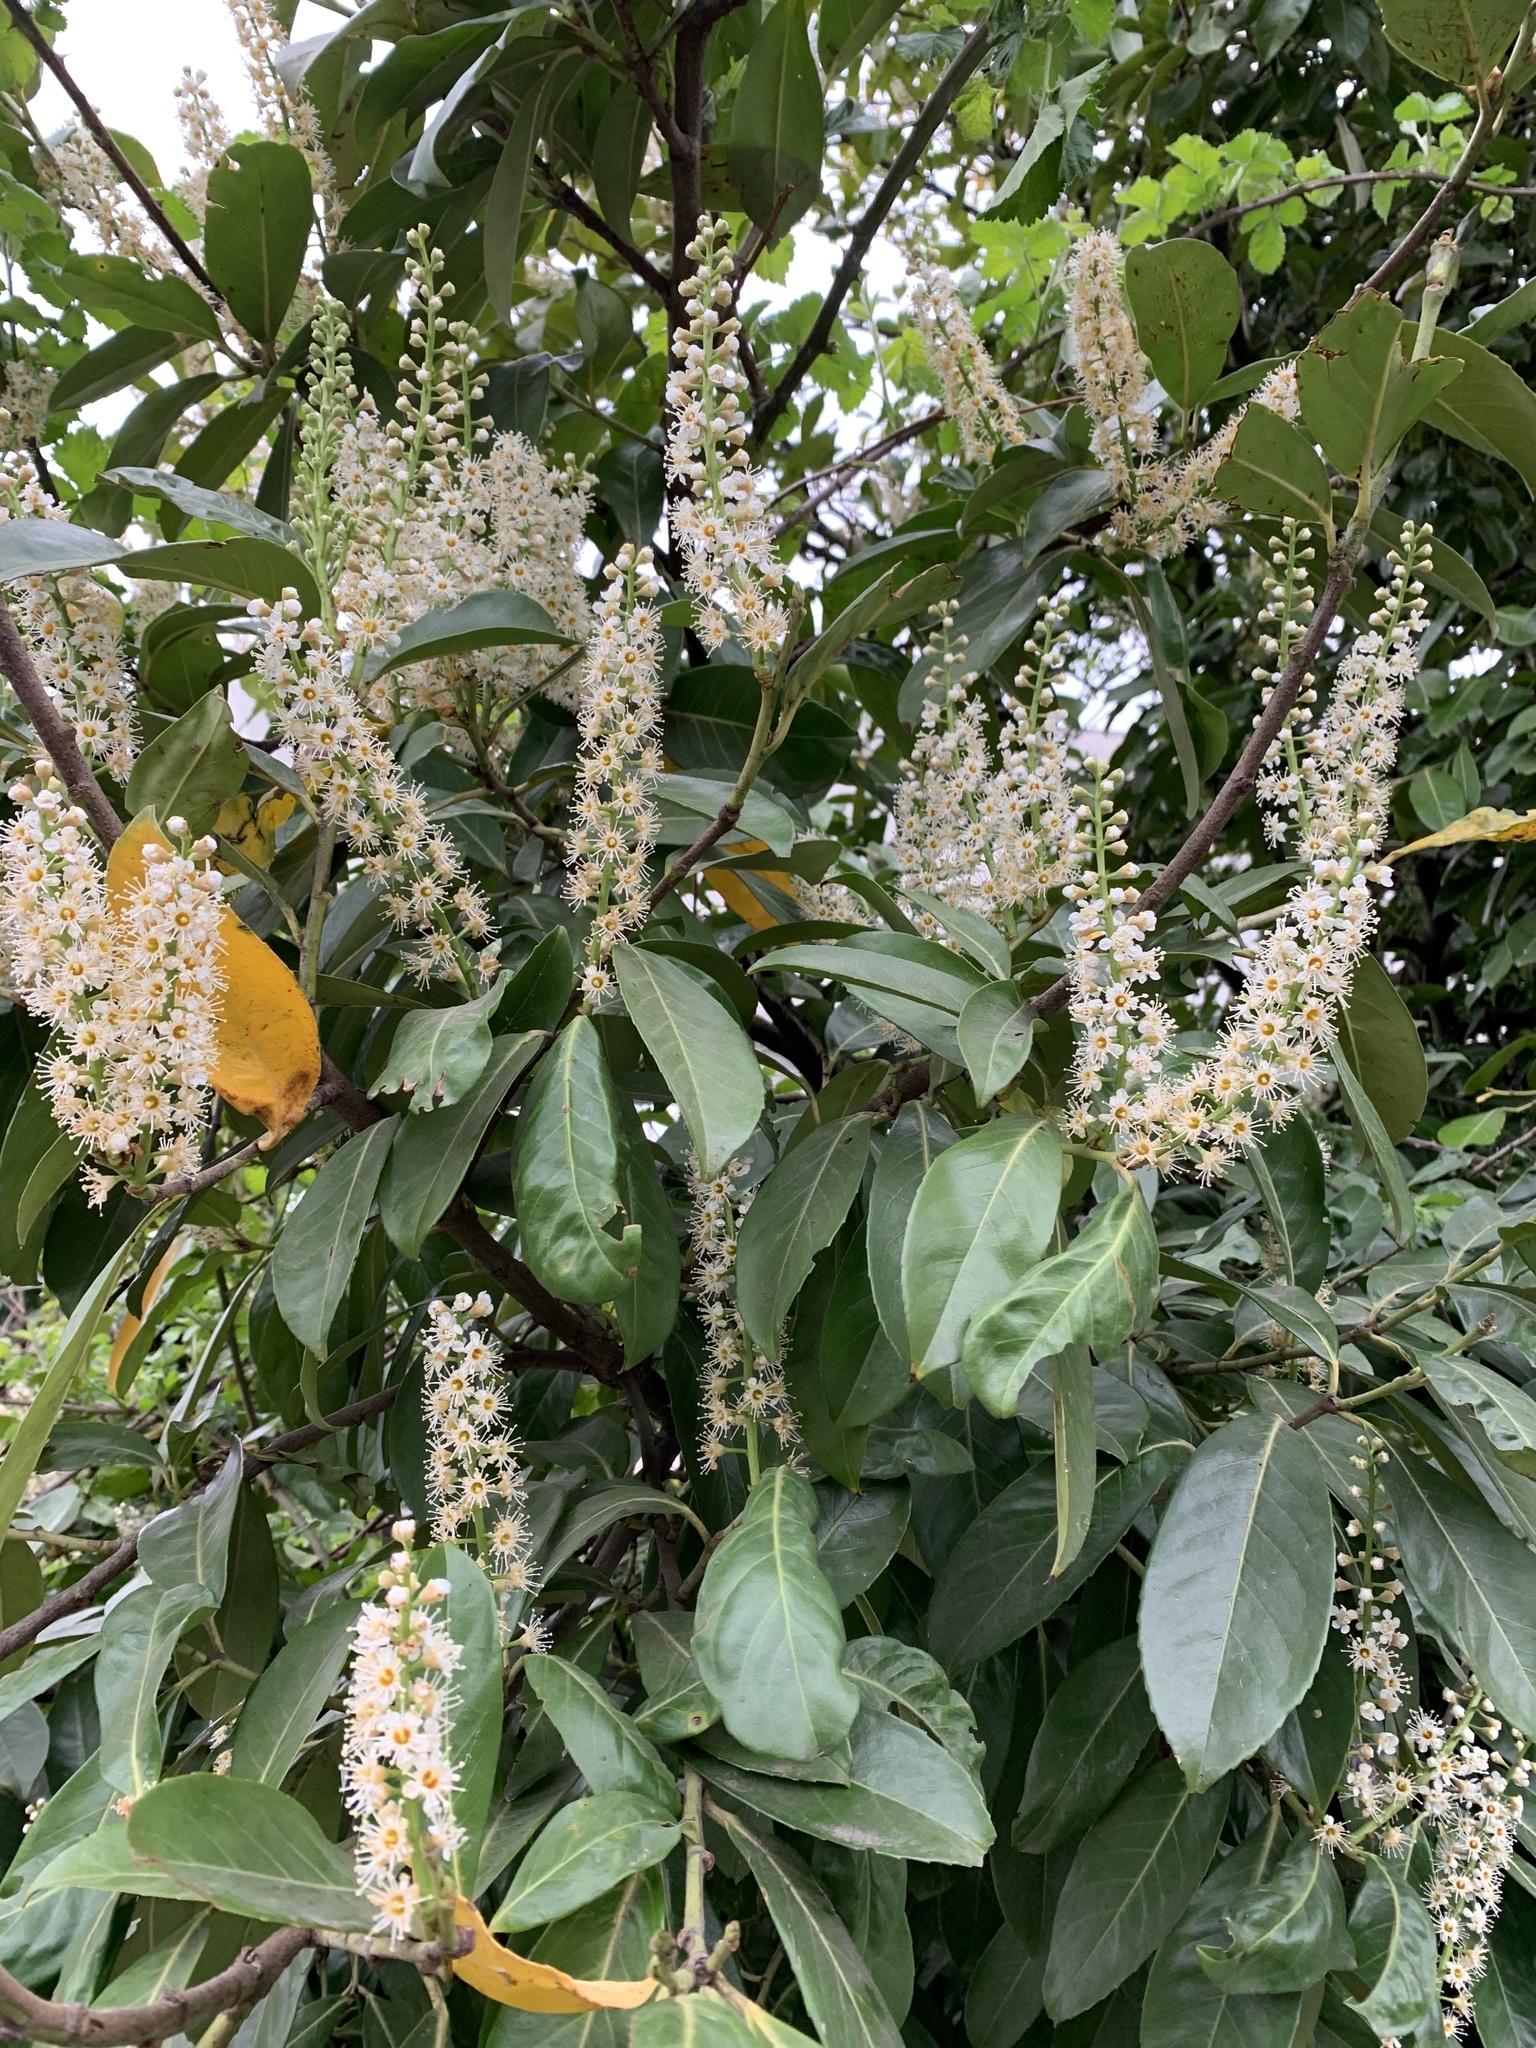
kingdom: Plantae
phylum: Tracheophyta
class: Magnoliopsida
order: Rosales
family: Rosaceae
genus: Prunus
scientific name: Prunus laurocerasus
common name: Cherry laurel
